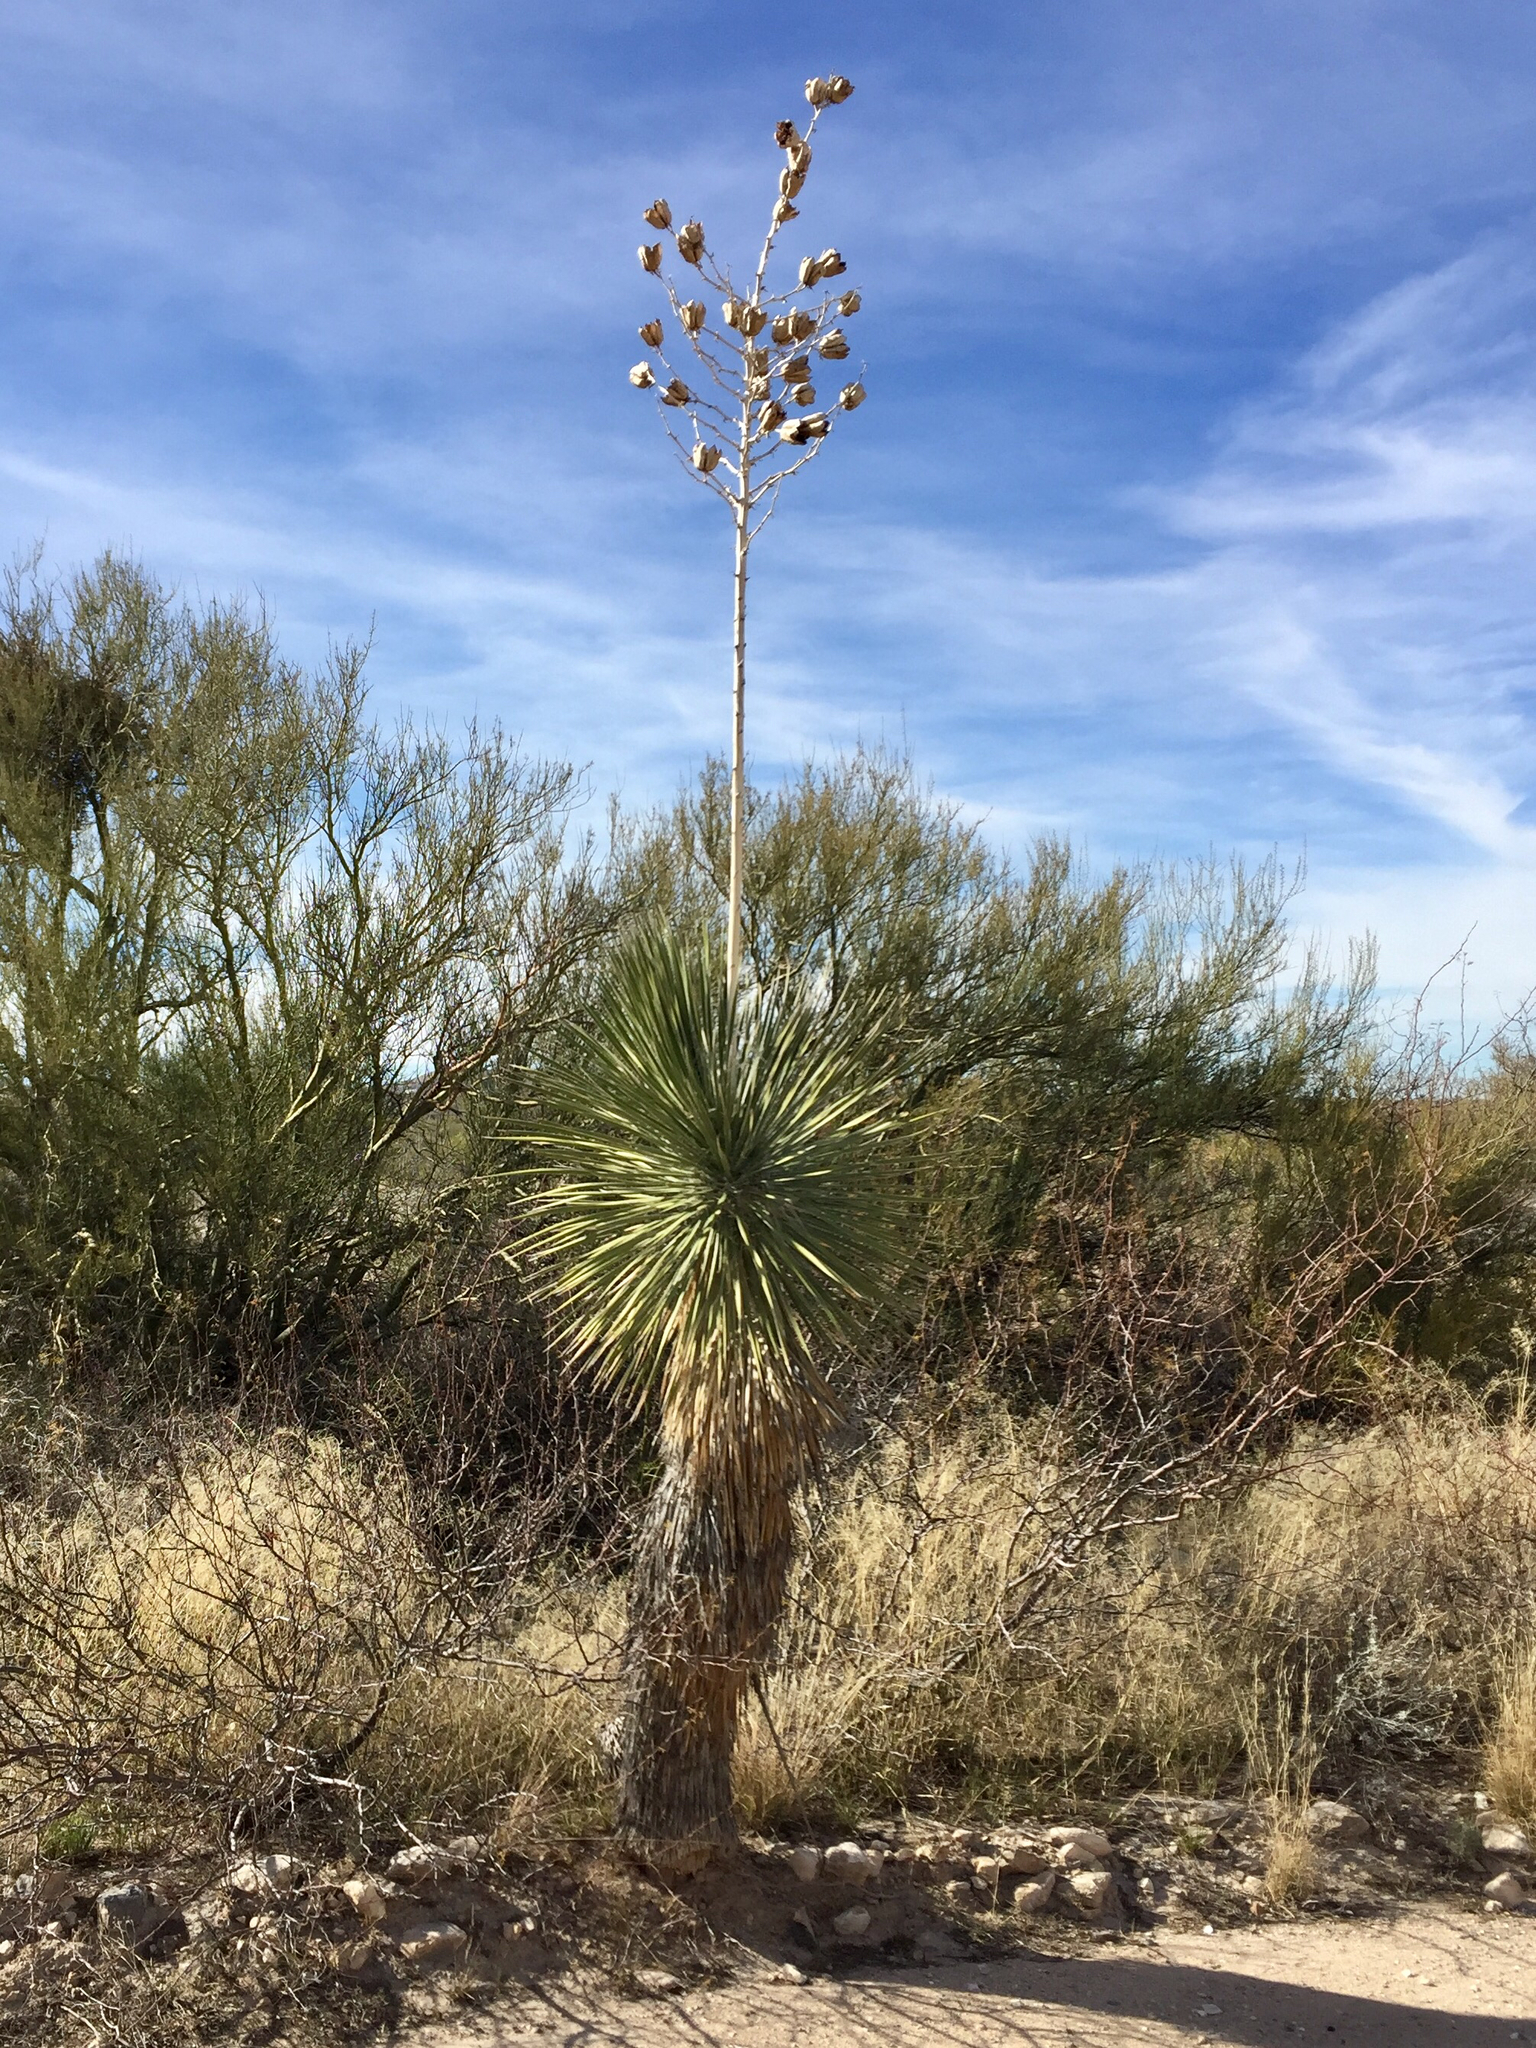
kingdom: Plantae
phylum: Tracheophyta
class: Liliopsida
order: Asparagales
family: Asparagaceae
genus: Yucca
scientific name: Yucca elata
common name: Palmella
